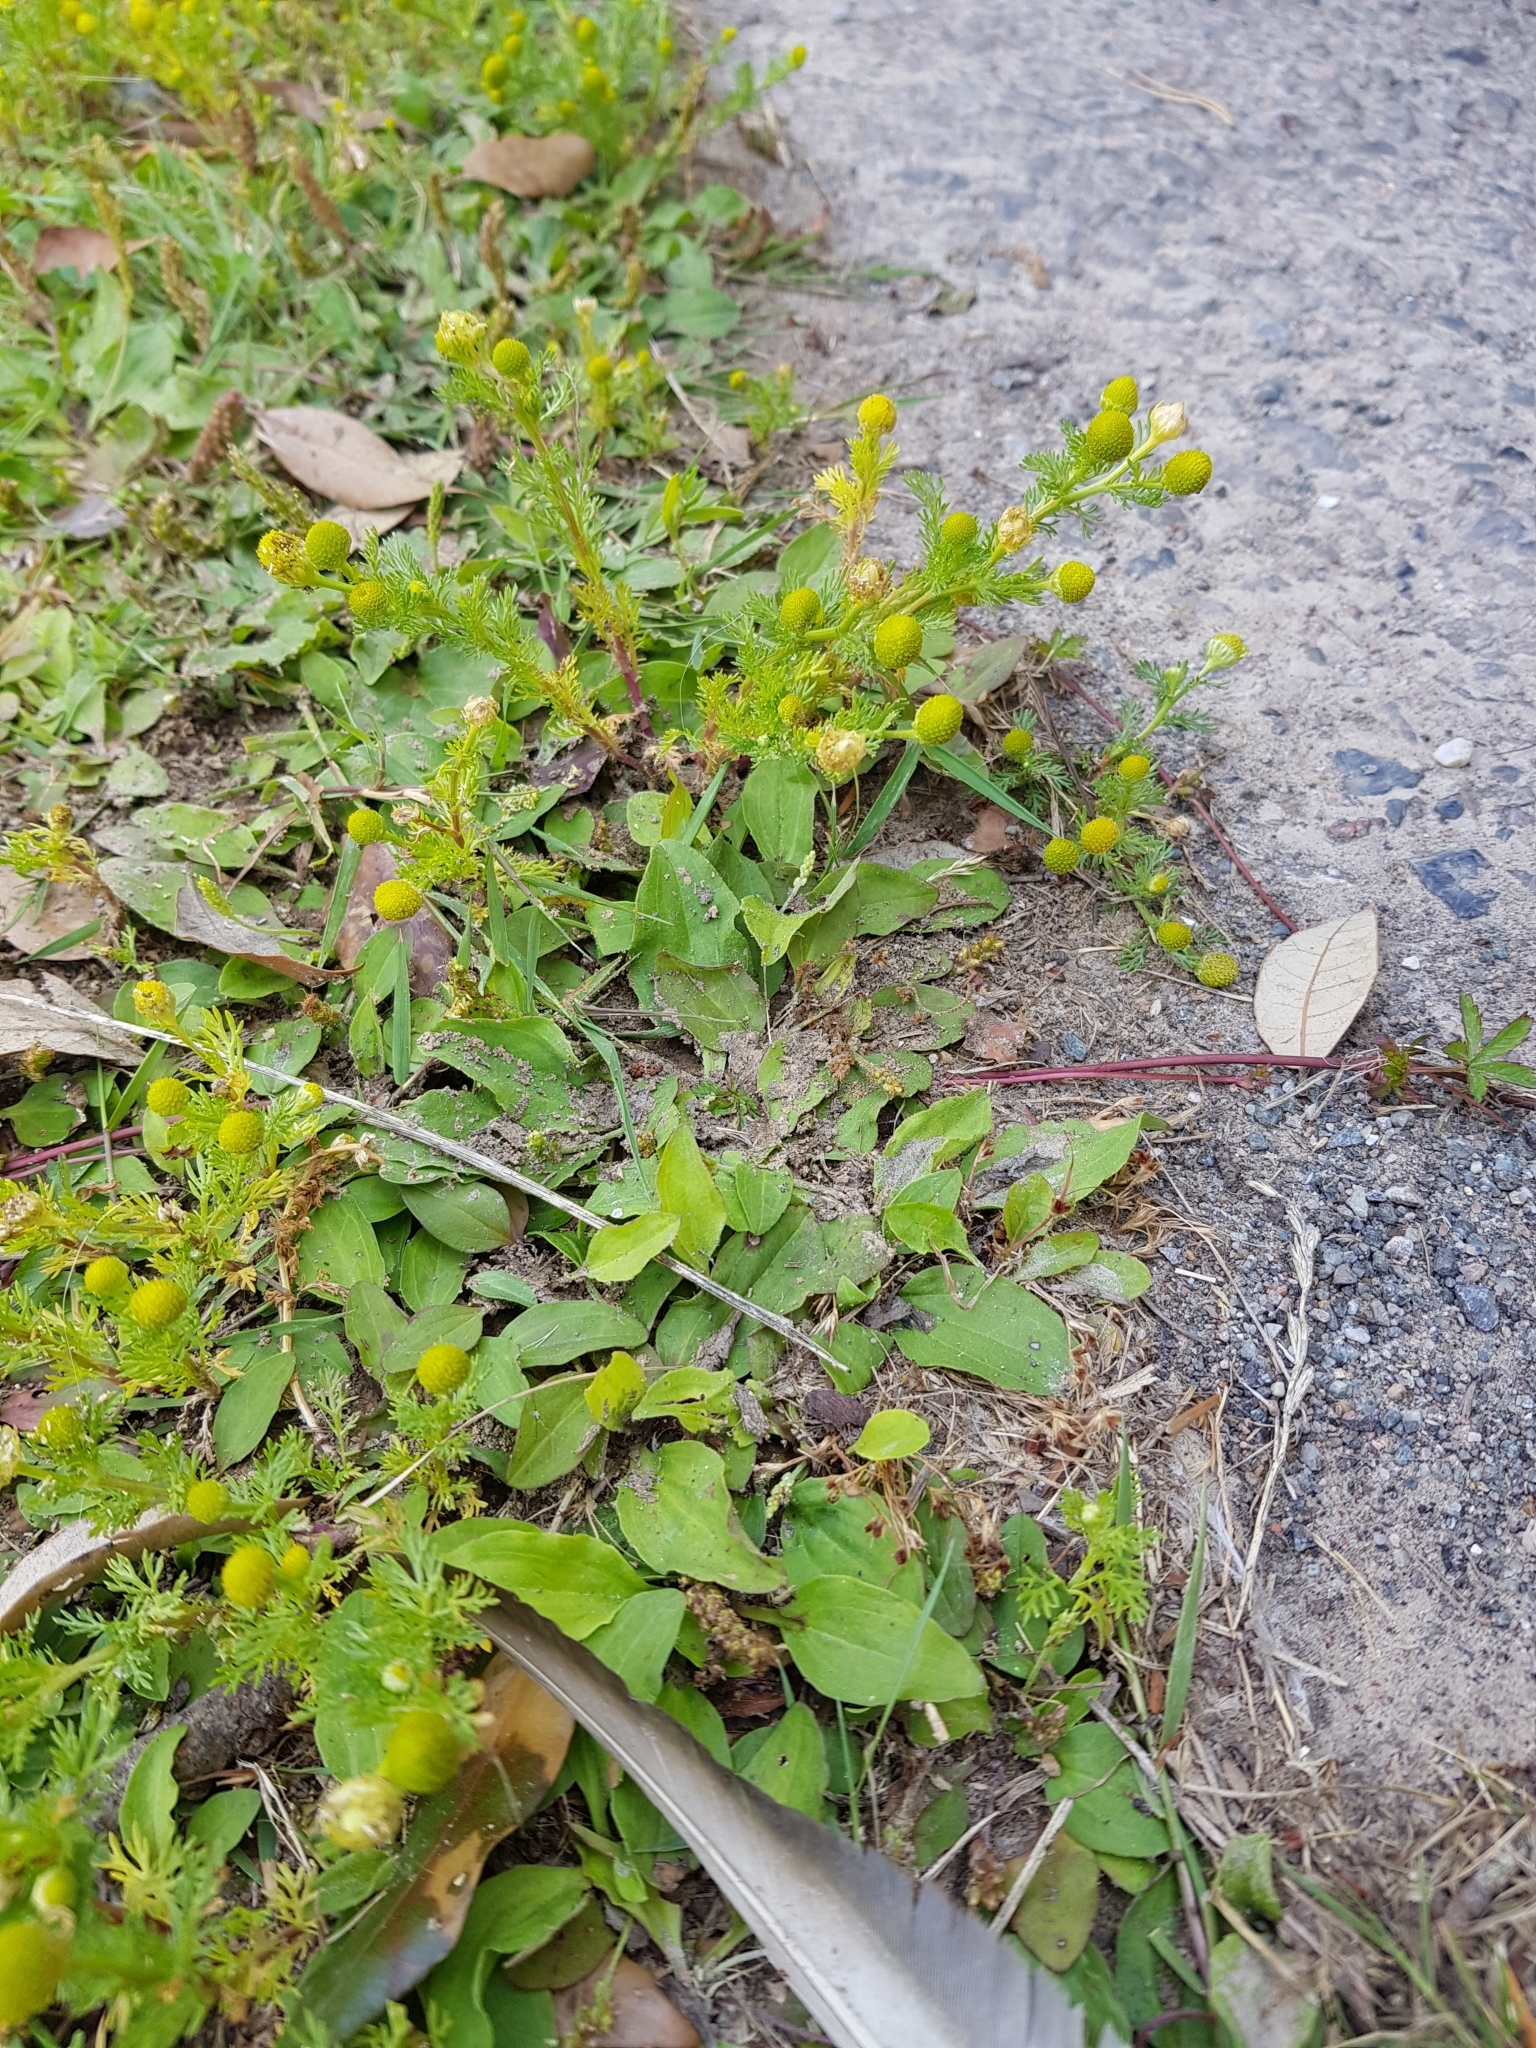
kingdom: Plantae
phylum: Tracheophyta
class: Magnoliopsida
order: Asterales
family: Asteraceae
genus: Matricaria
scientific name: Matricaria discoidea
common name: Disc mayweed
